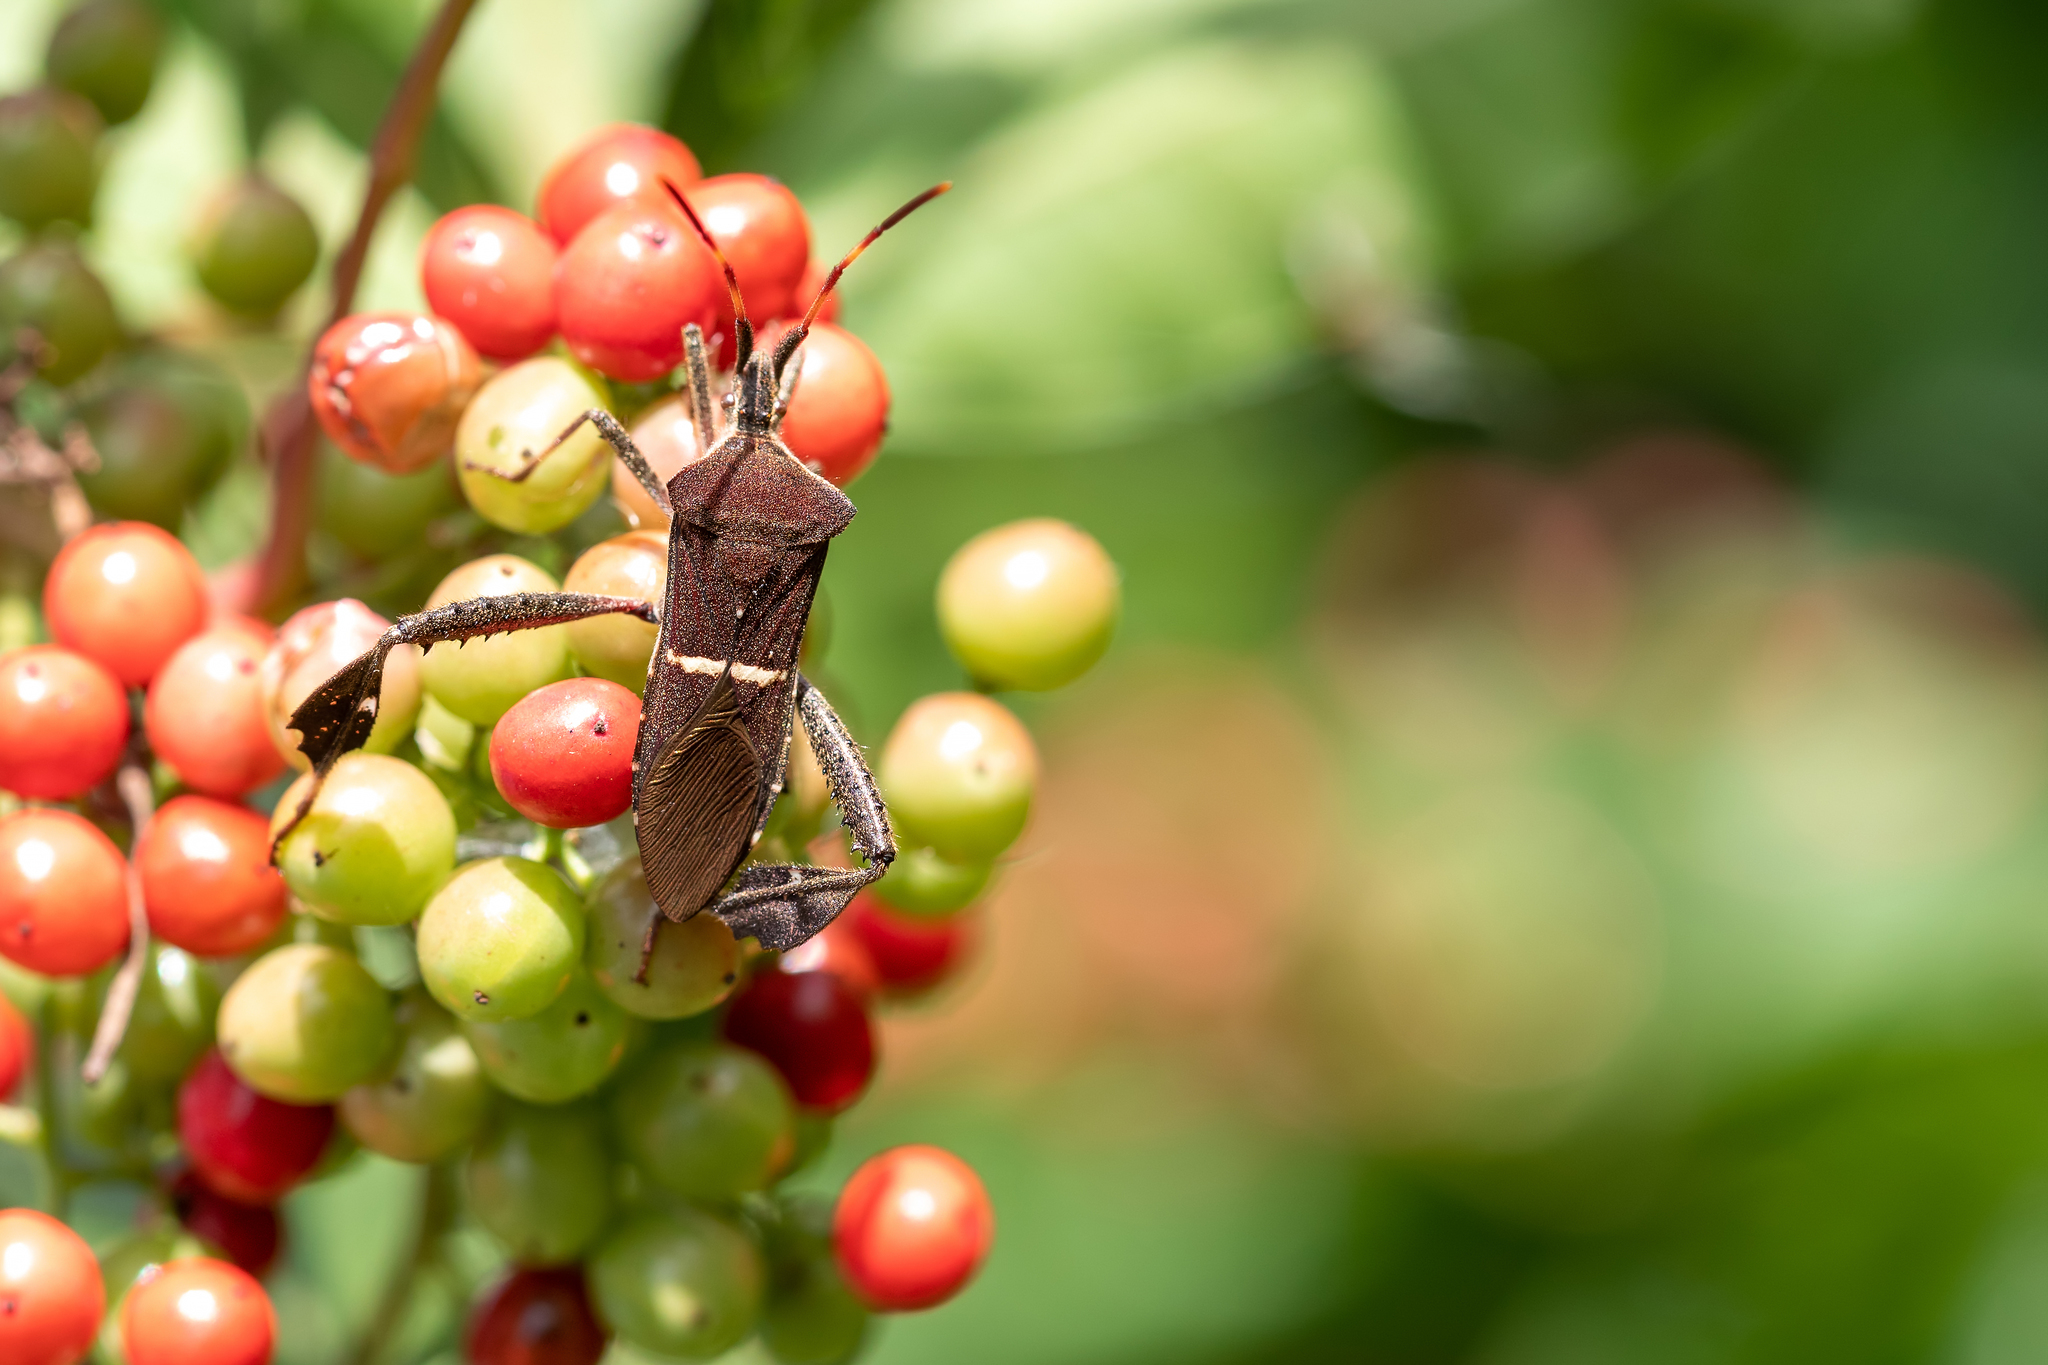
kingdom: Animalia
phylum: Arthropoda
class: Insecta
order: Hemiptera
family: Coreidae
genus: Leptoglossus
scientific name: Leptoglossus phyllopus
